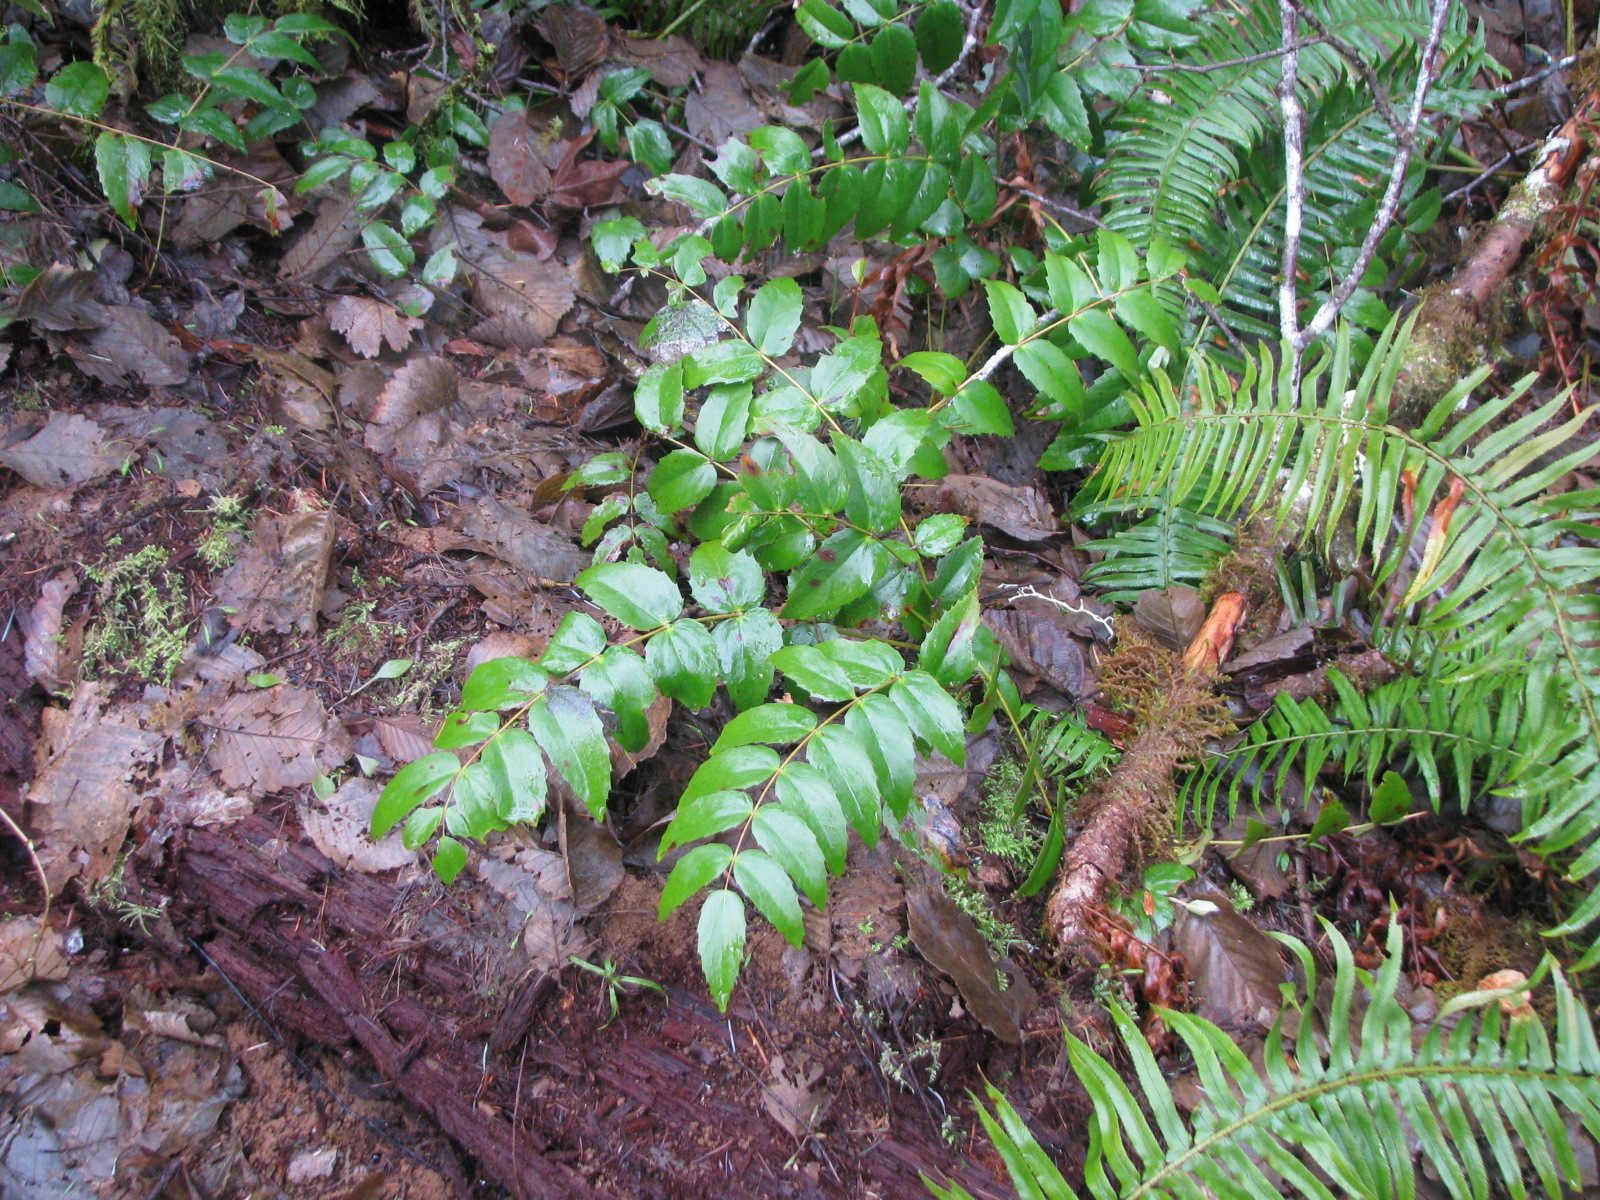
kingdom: Plantae
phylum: Tracheophyta
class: Magnoliopsida
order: Ranunculales
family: Berberidaceae
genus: Mahonia
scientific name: Mahonia nervosa
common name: Cascade oregon-grape
